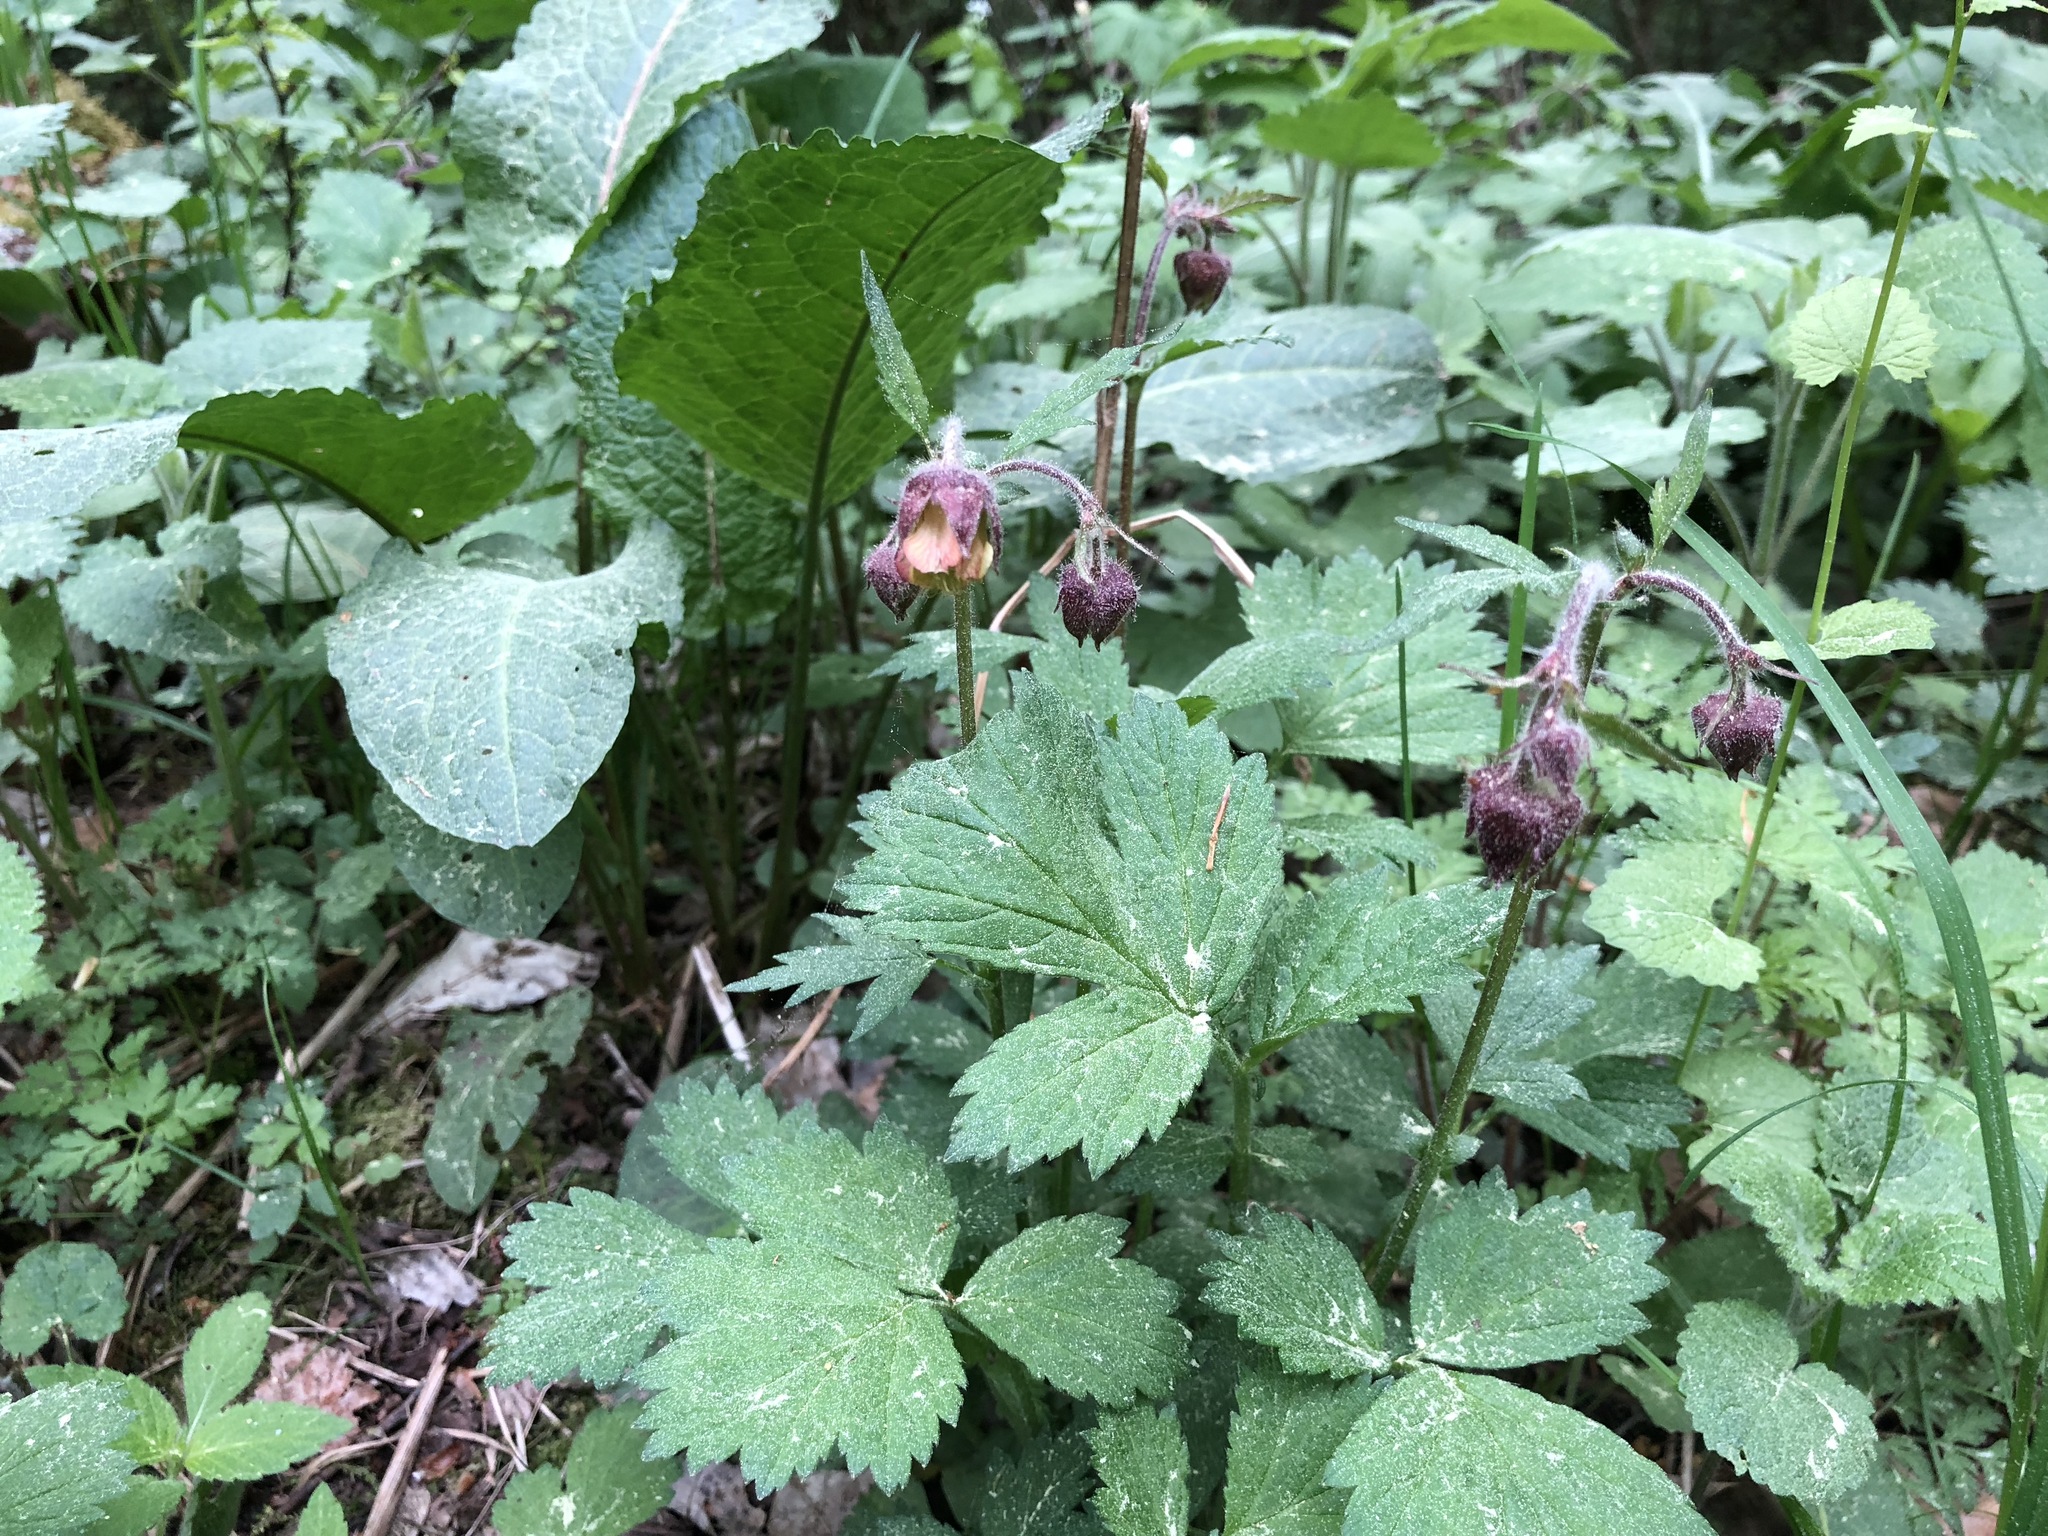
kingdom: Plantae
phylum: Tracheophyta
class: Magnoliopsida
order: Rosales
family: Rosaceae
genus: Geum
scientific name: Geum rivale
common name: Water avens
